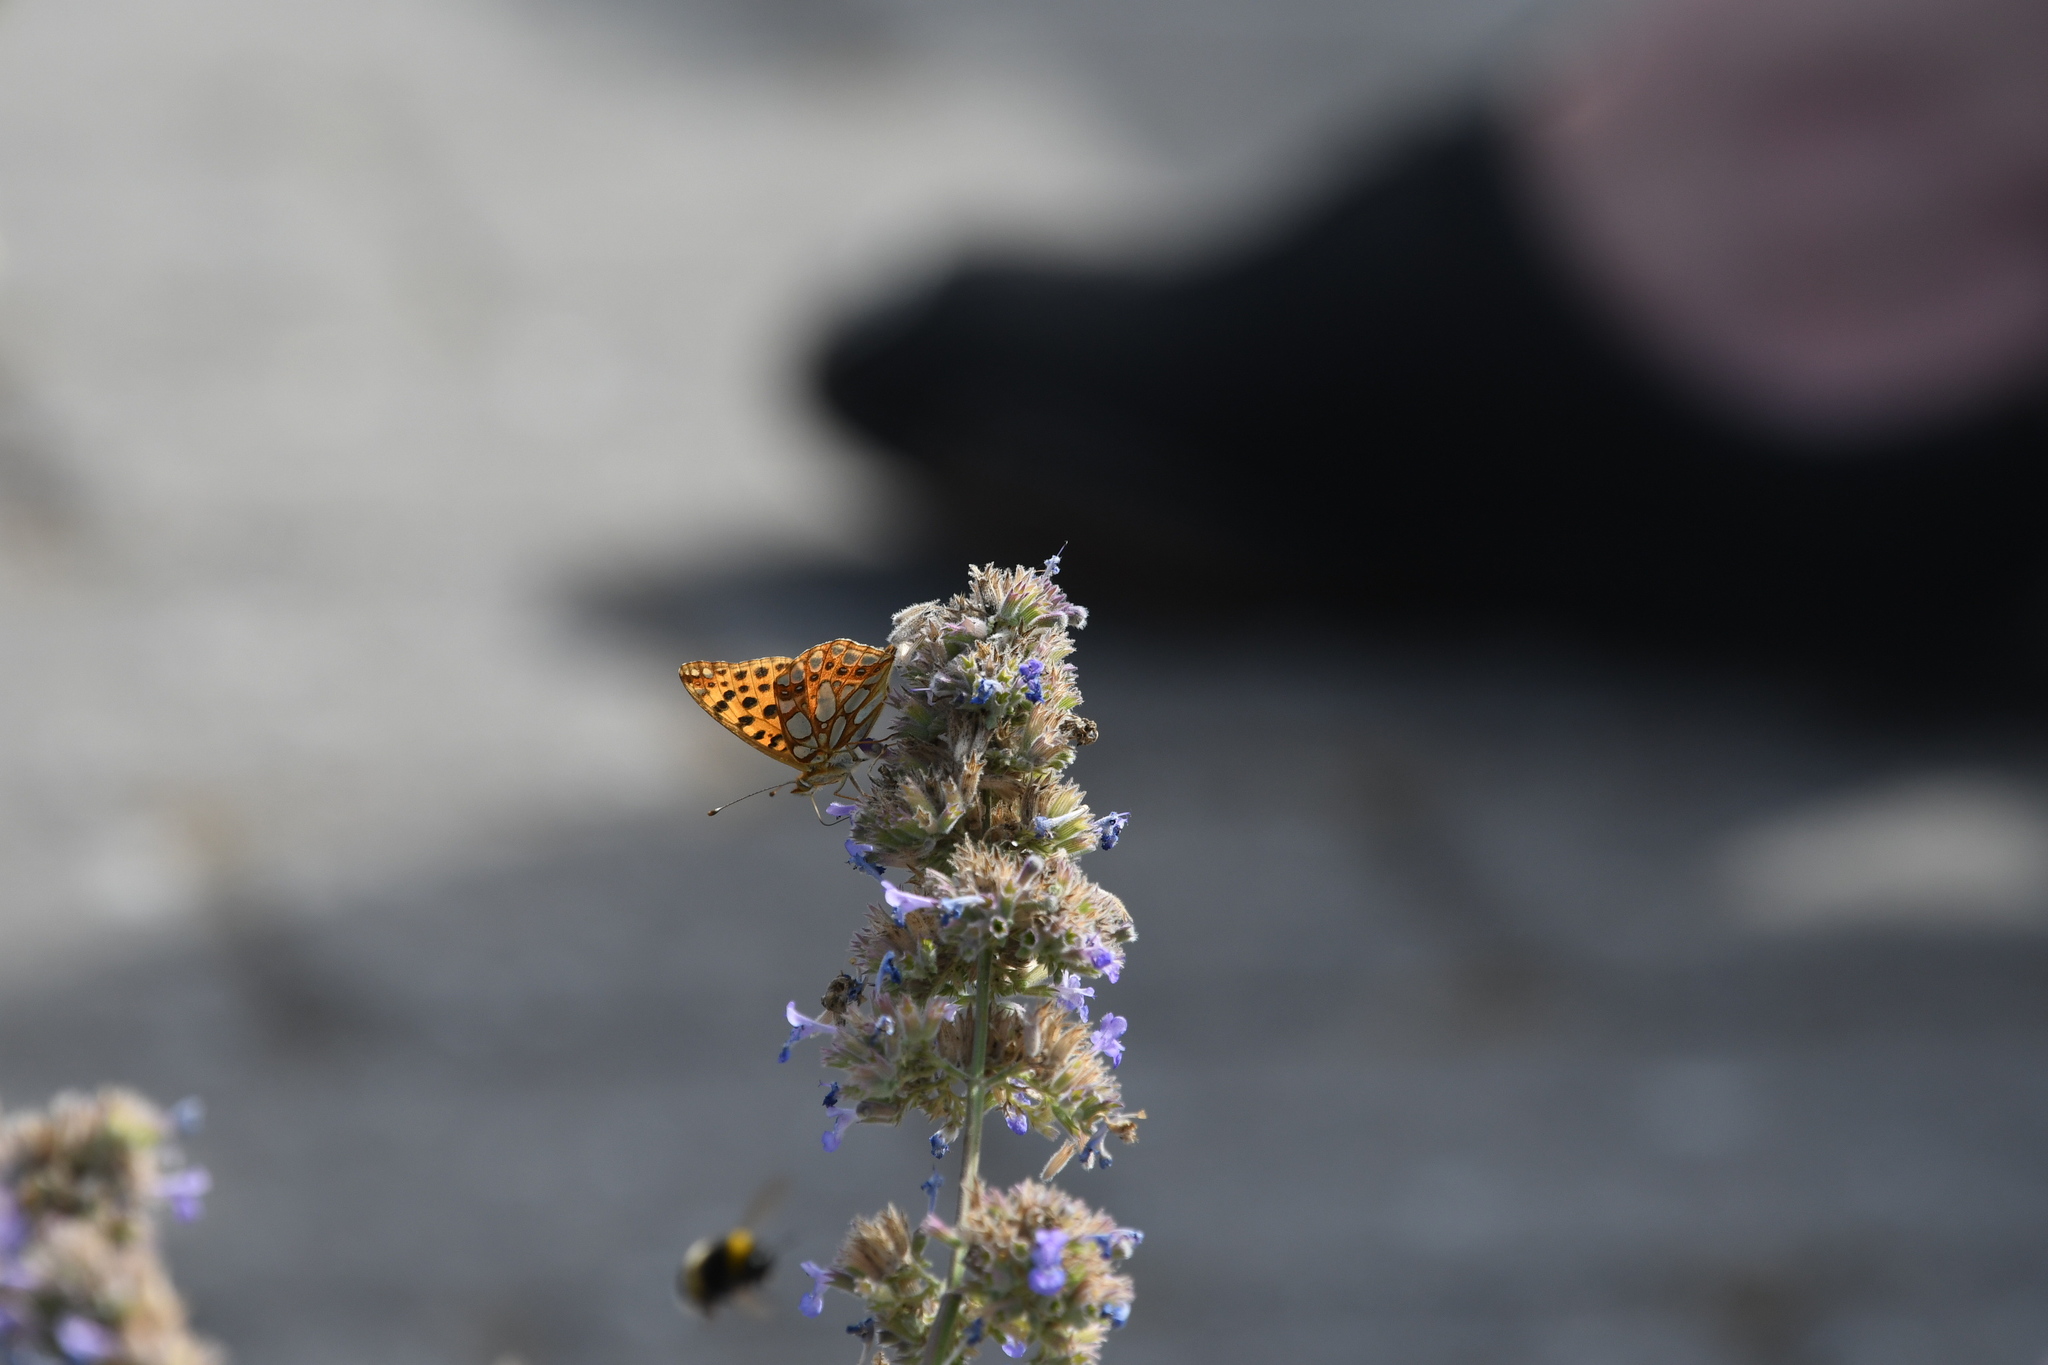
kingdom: Animalia
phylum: Arthropoda
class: Insecta
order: Lepidoptera
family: Nymphalidae
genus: Issoria
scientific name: Issoria lathonia
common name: Queen of spain fritillary
